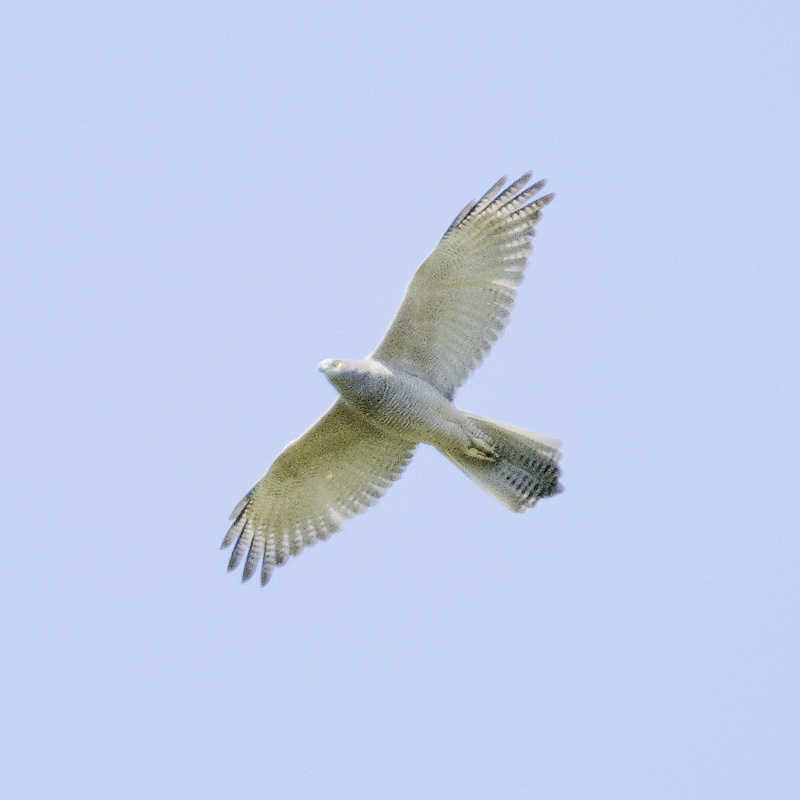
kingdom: Animalia
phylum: Chordata
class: Aves
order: Accipitriformes
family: Accipitridae
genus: Accipiter
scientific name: Accipiter fasciatus
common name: Brown goshawk
